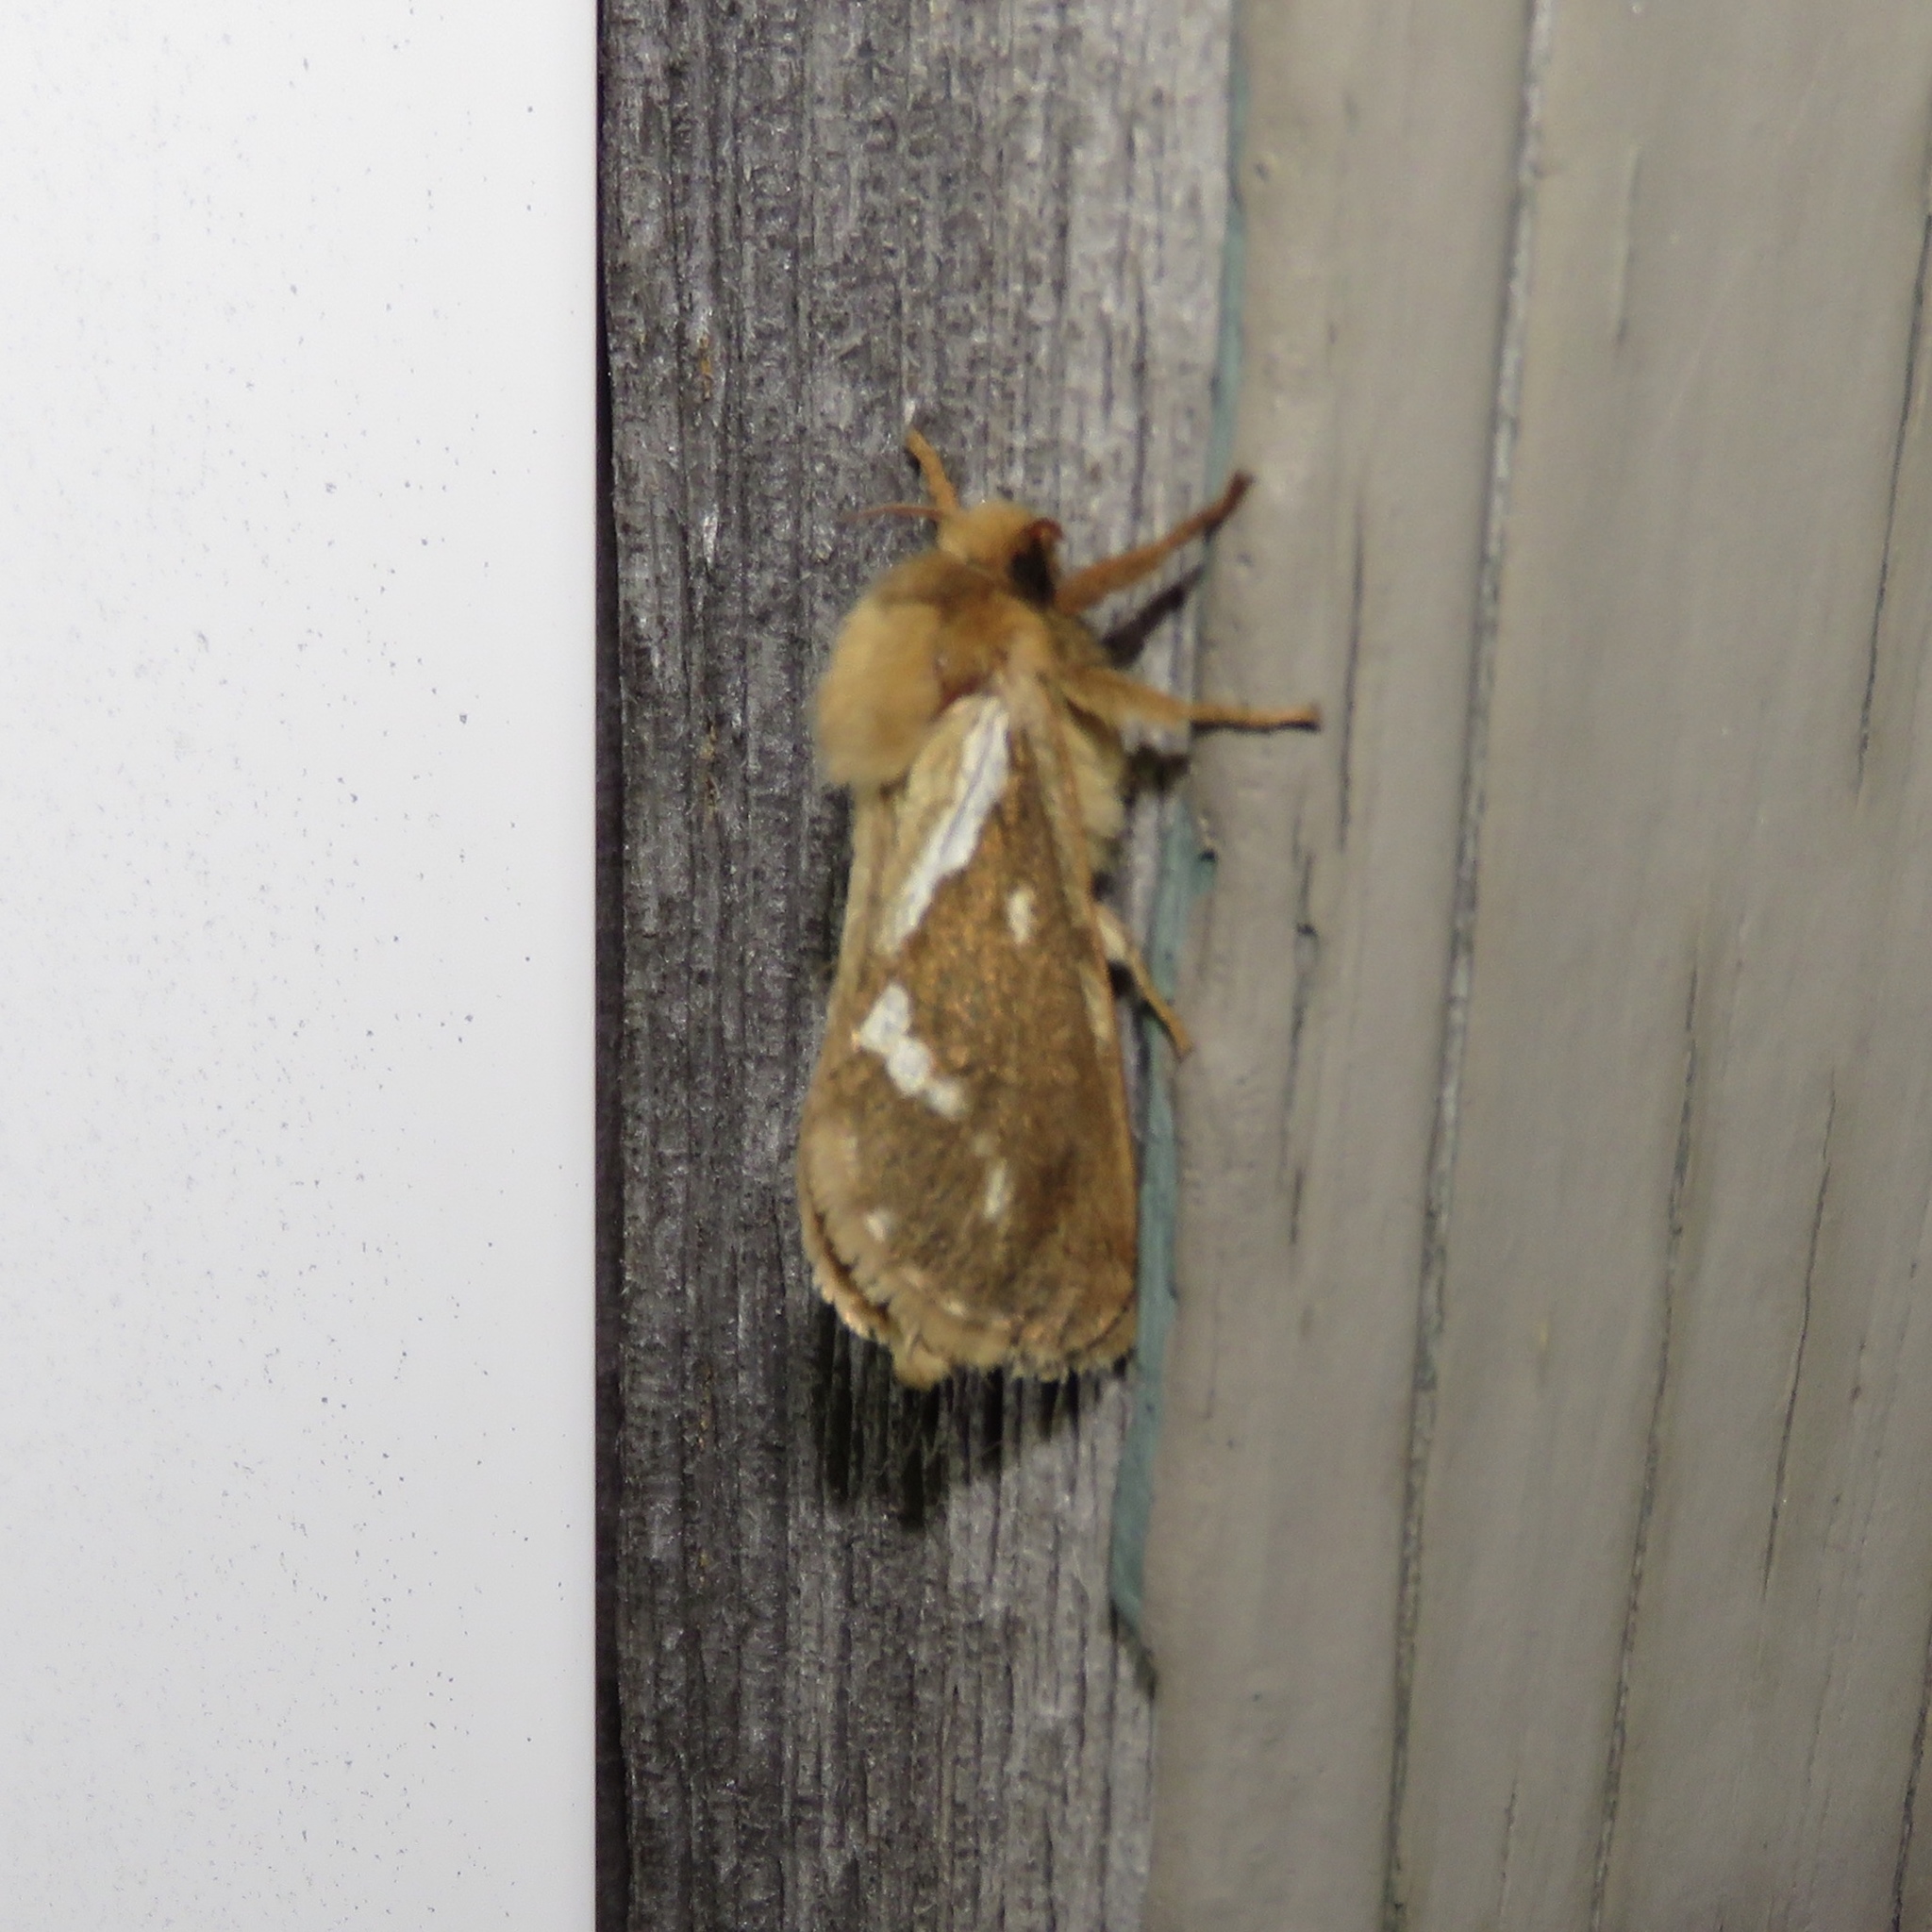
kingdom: Animalia
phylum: Arthropoda
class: Insecta
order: Lepidoptera
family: Hepialidae
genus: Korscheltellus
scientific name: Korscheltellus lupulina
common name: Common swift
